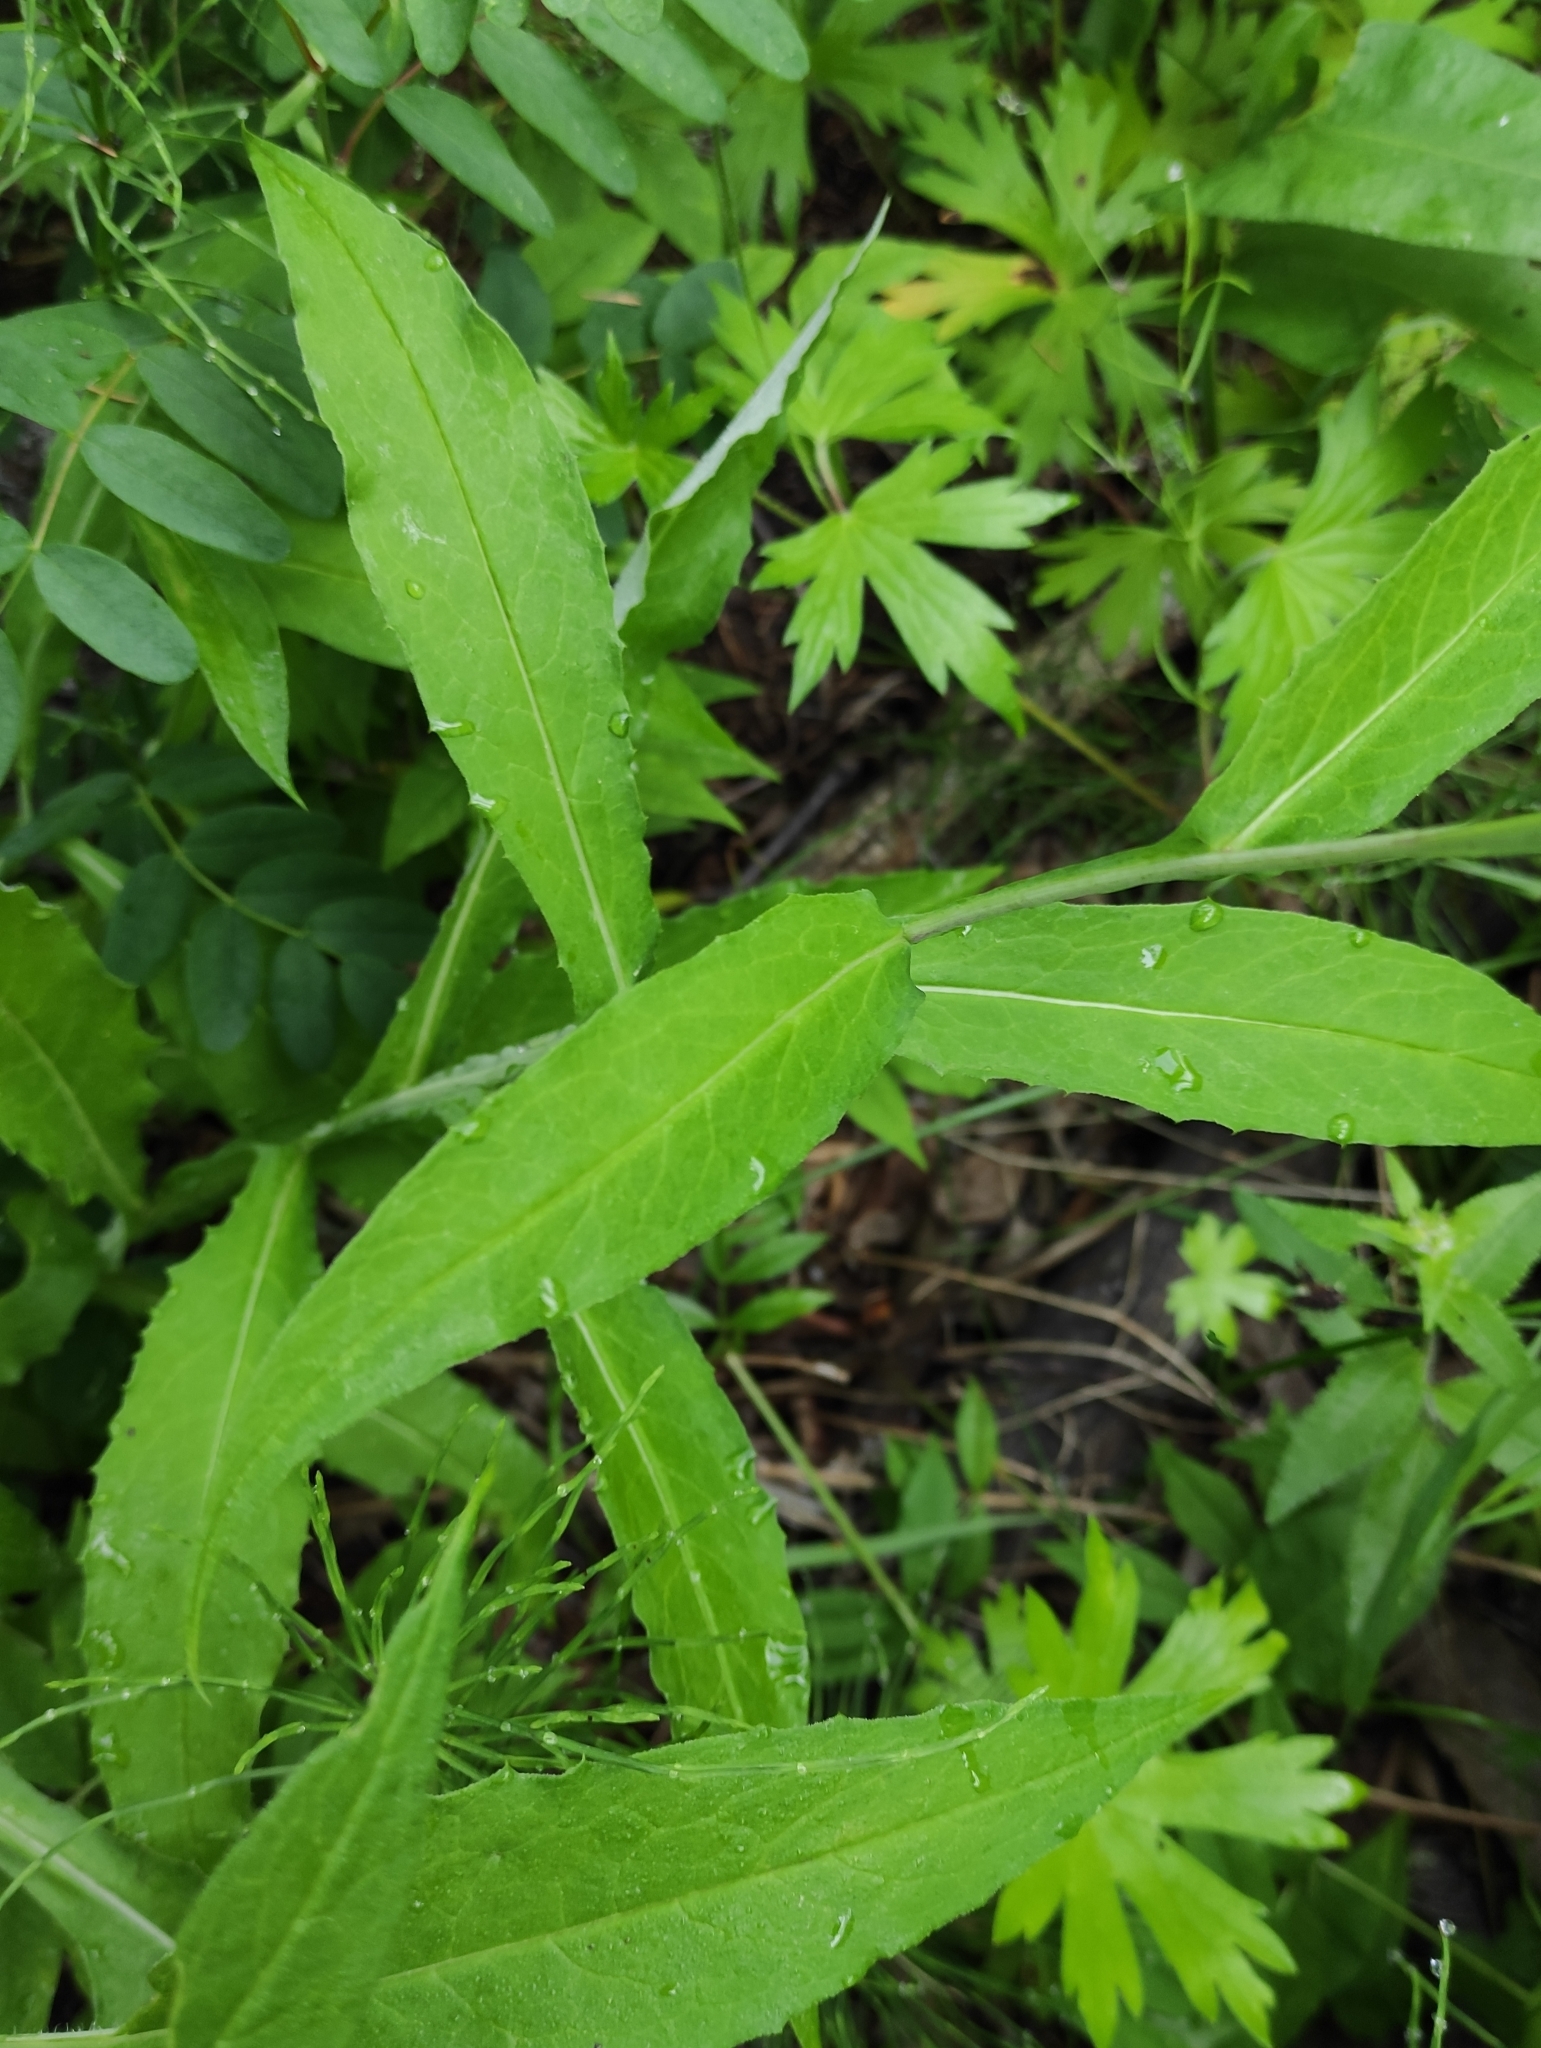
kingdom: Plantae
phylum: Tracheophyta
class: Magnoliopsida
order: Asterales
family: Asteraceae
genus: Saussurea
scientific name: Saussurea parviflora
